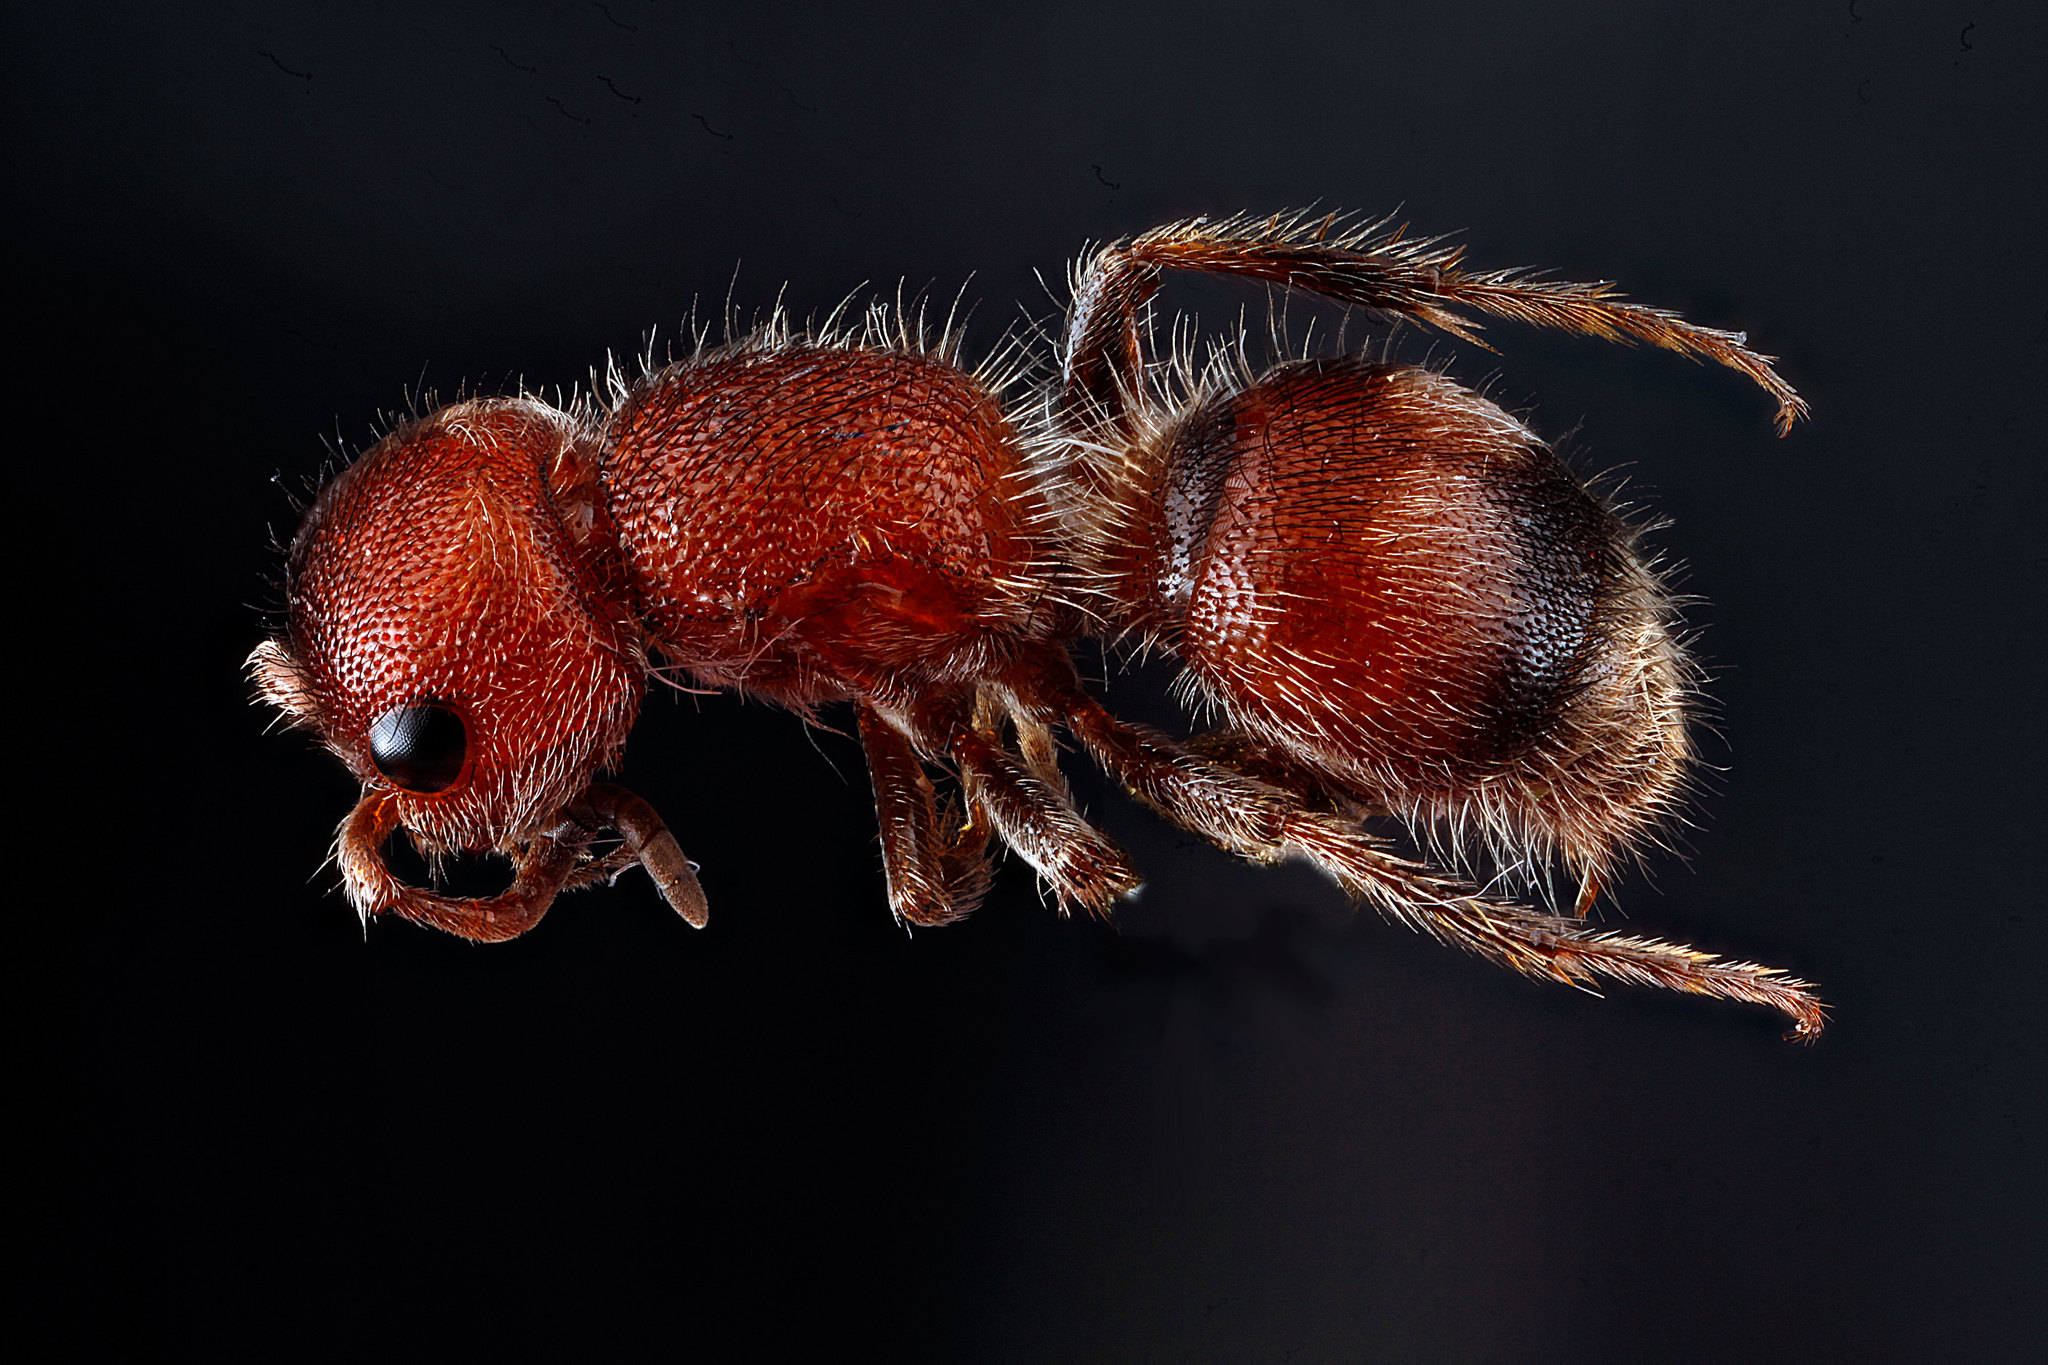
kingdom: Animalia
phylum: Arthropoda
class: Insecta
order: Hymenoptera
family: Mutillidae
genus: Pseudomethoca
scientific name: Pseudomethoca
